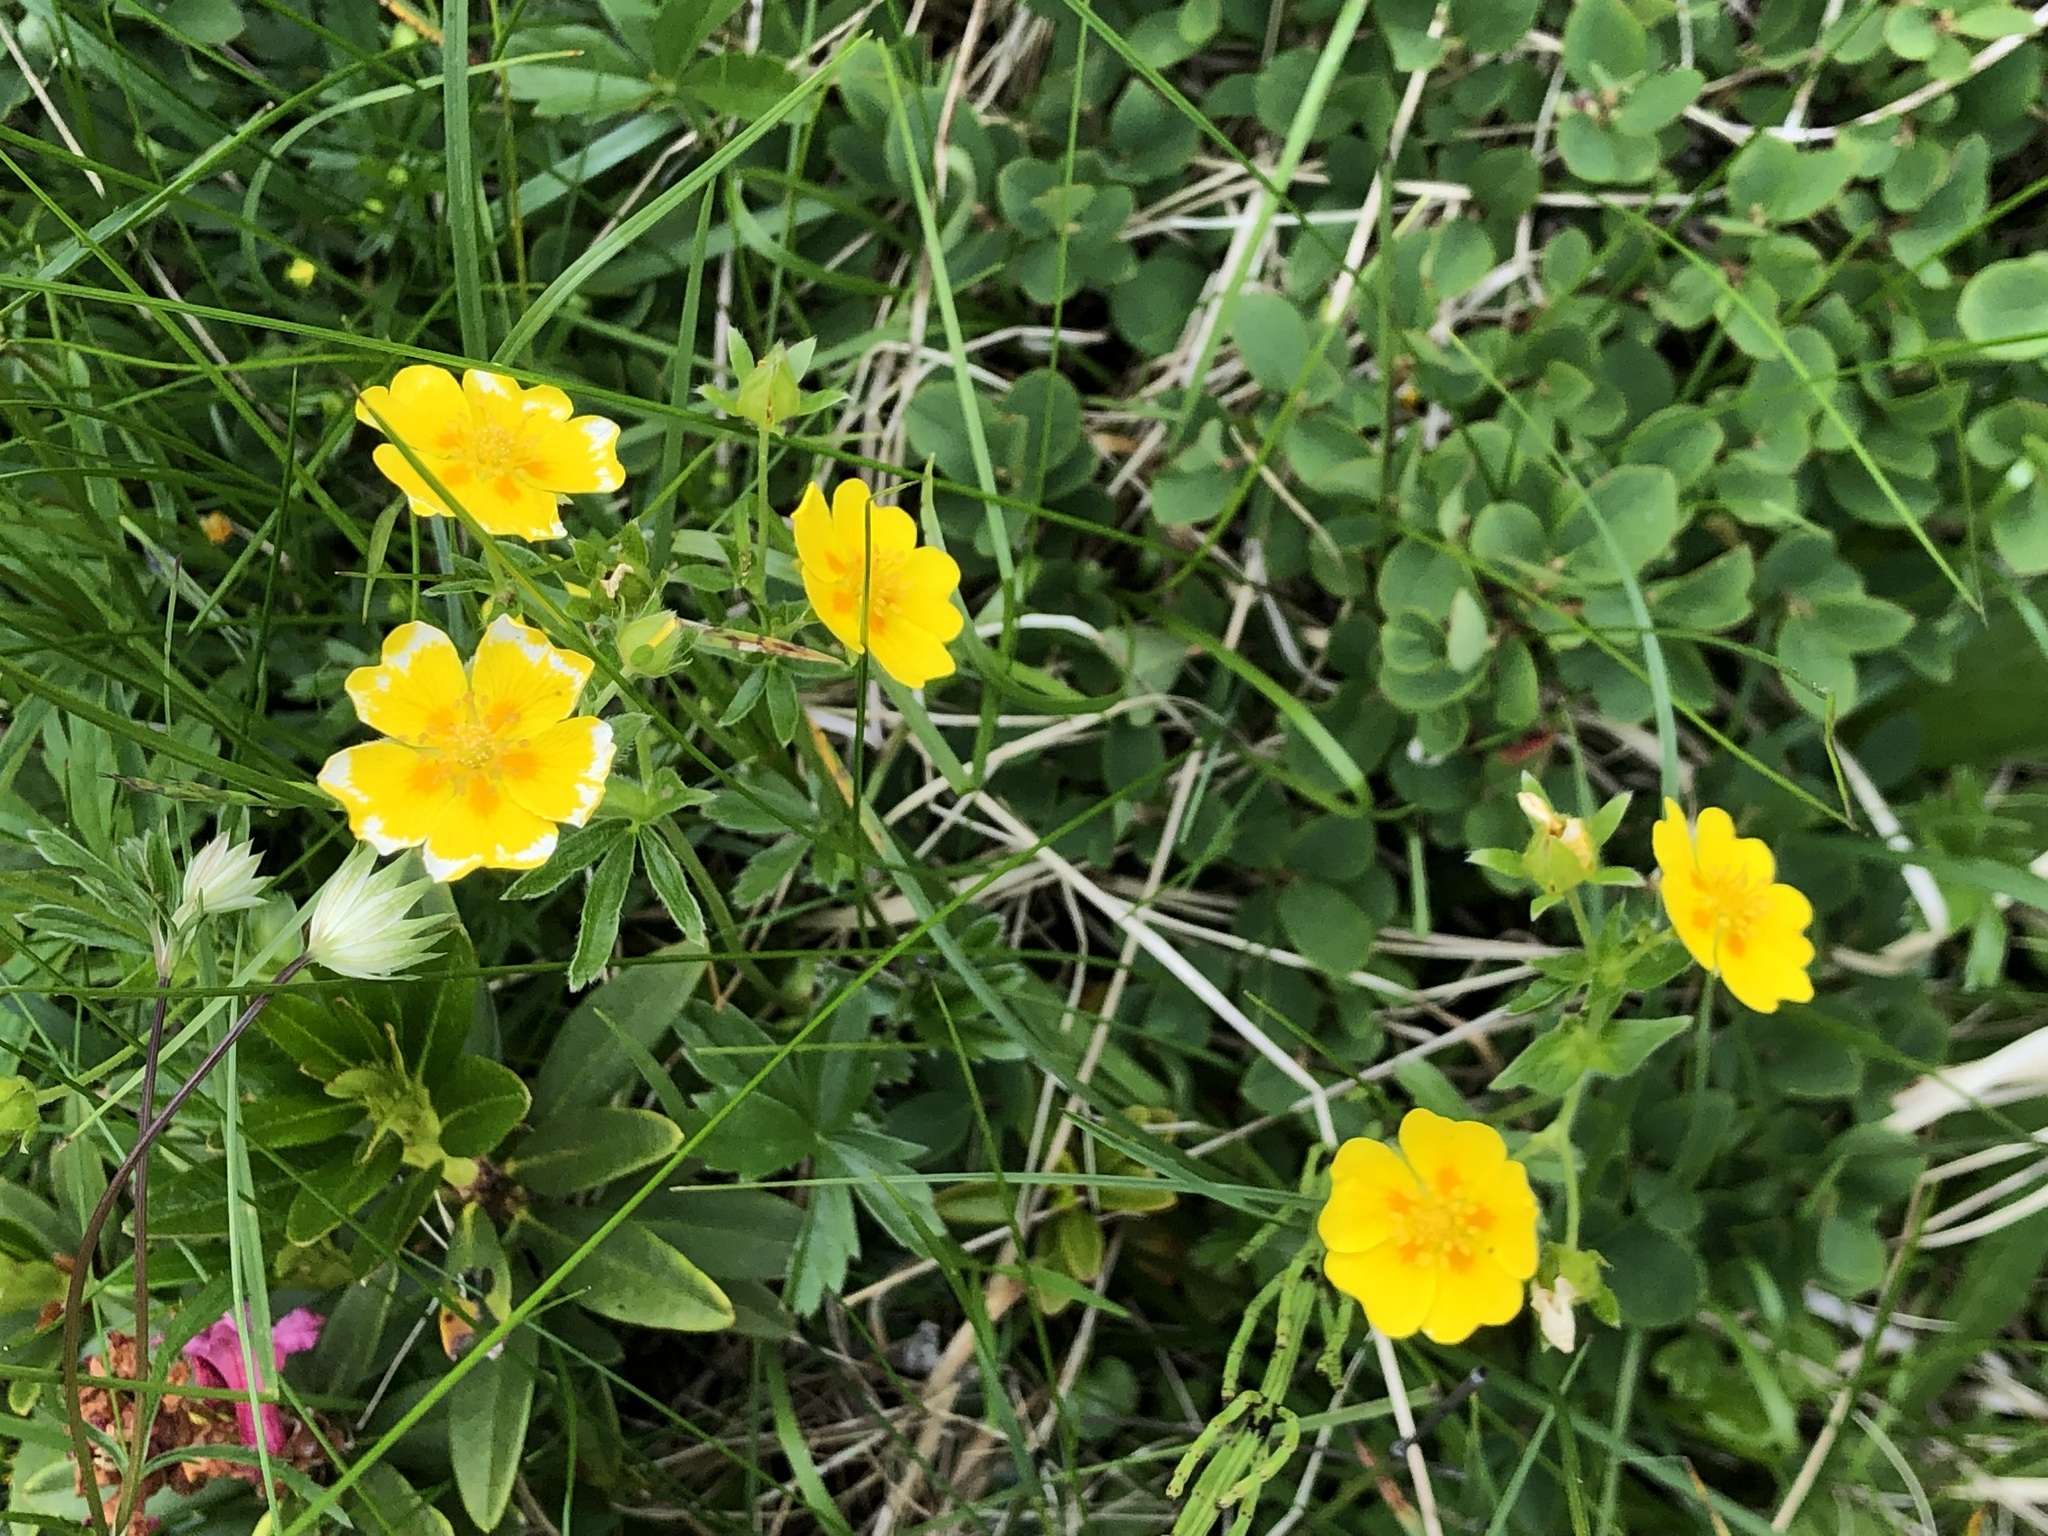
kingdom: Plantae
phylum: Tracheophyta
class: Magnoliopsida
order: Rosales
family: Rosaceae
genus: Potentilla
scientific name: Potentilla aurea
